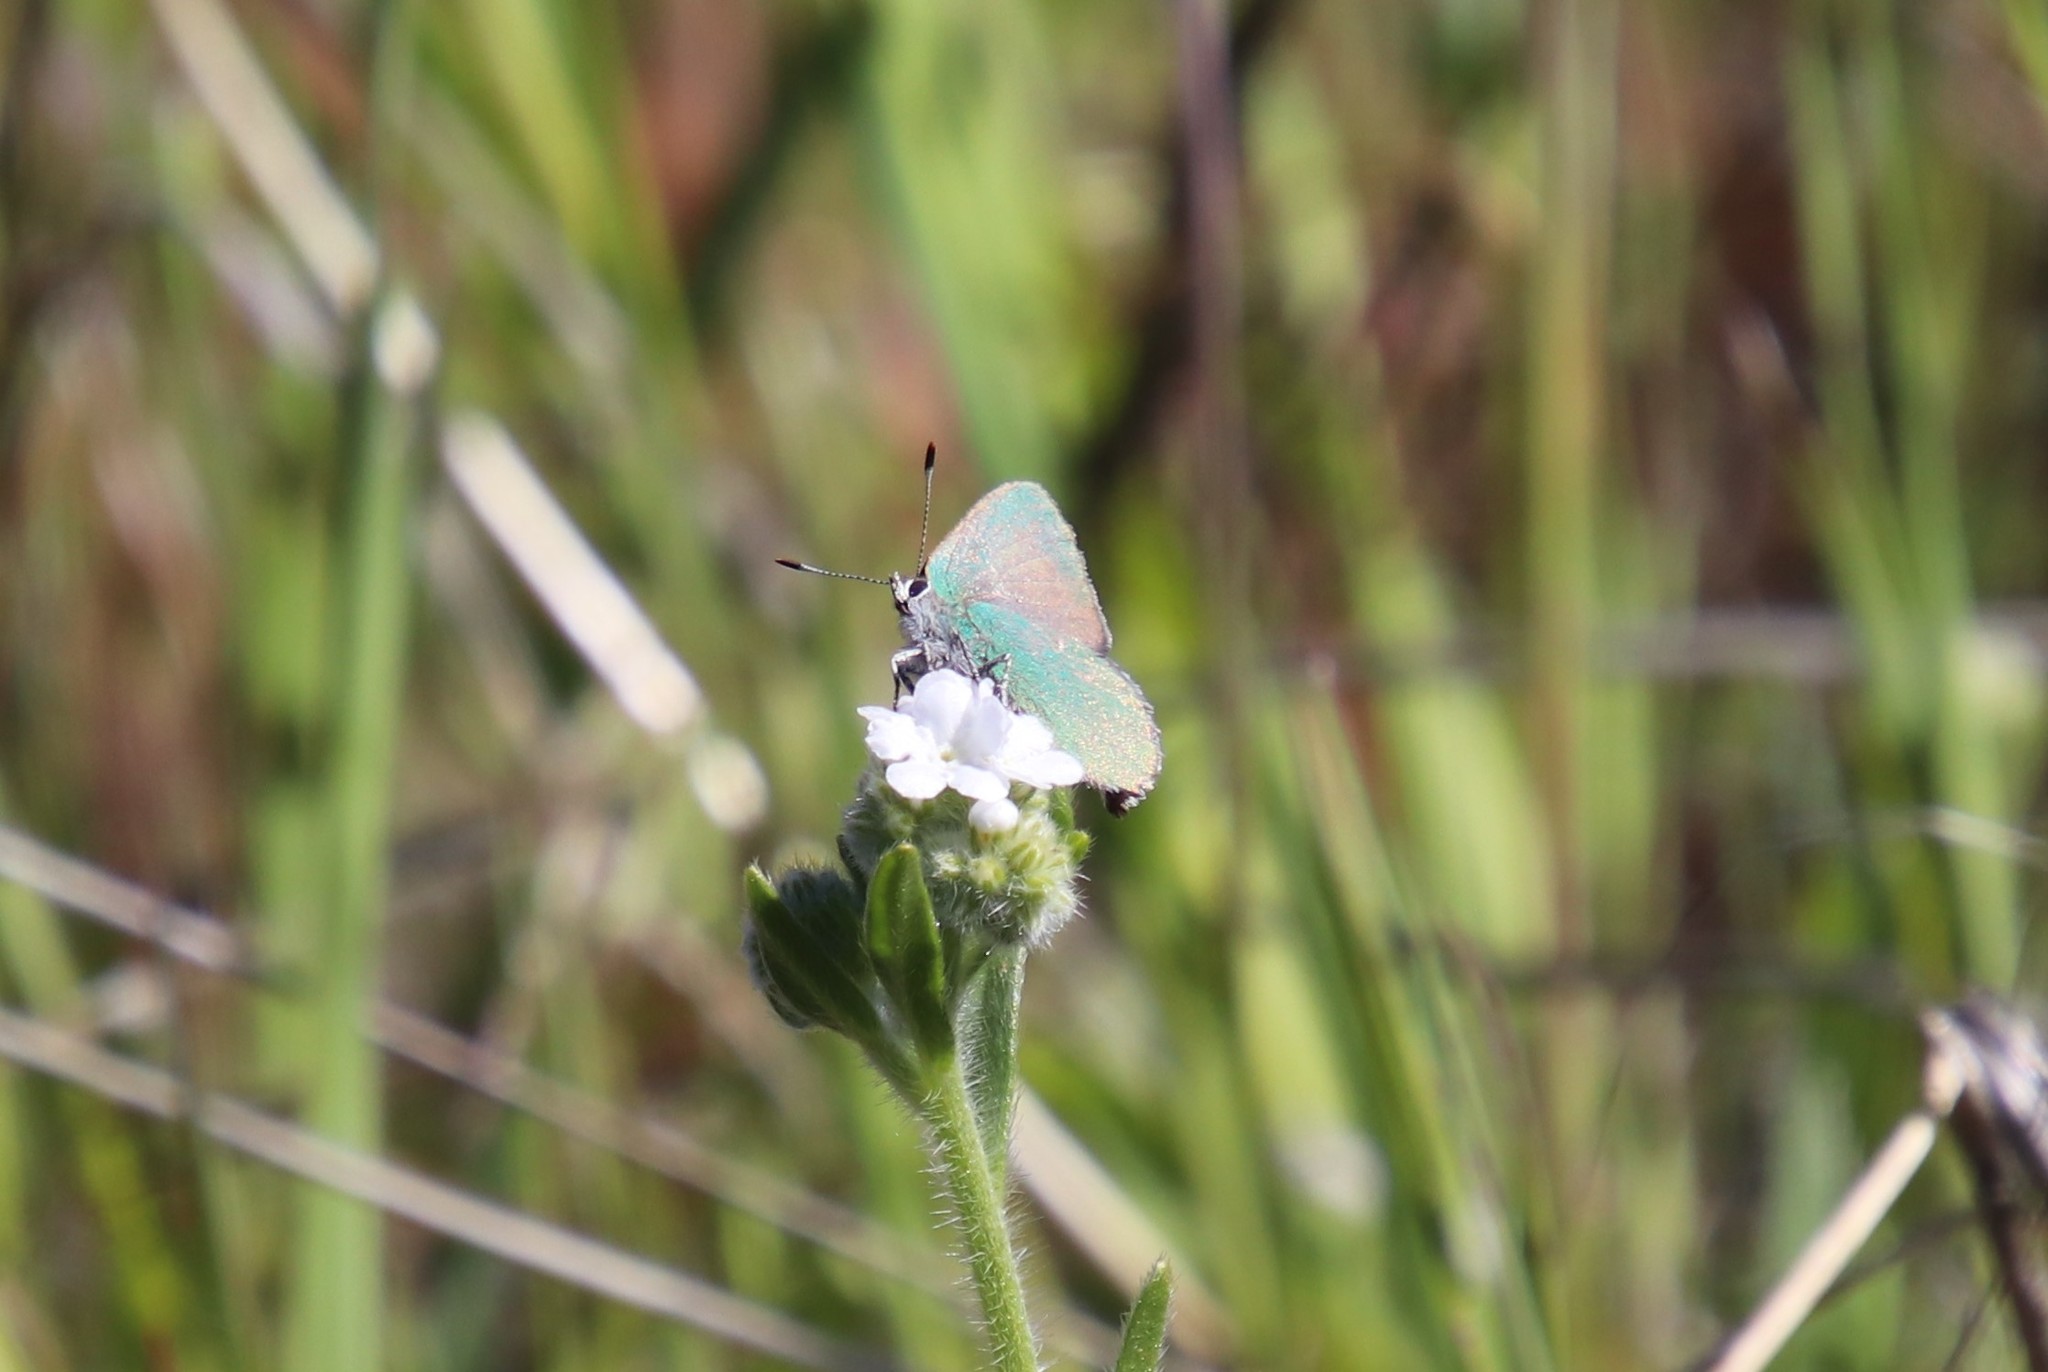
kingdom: Animalia
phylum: Arthropoda
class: Insecta
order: Lepidoptera
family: Lycaenidae
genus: Callophrys
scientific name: Callophrys dumetorum
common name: Bramble hairstreak
